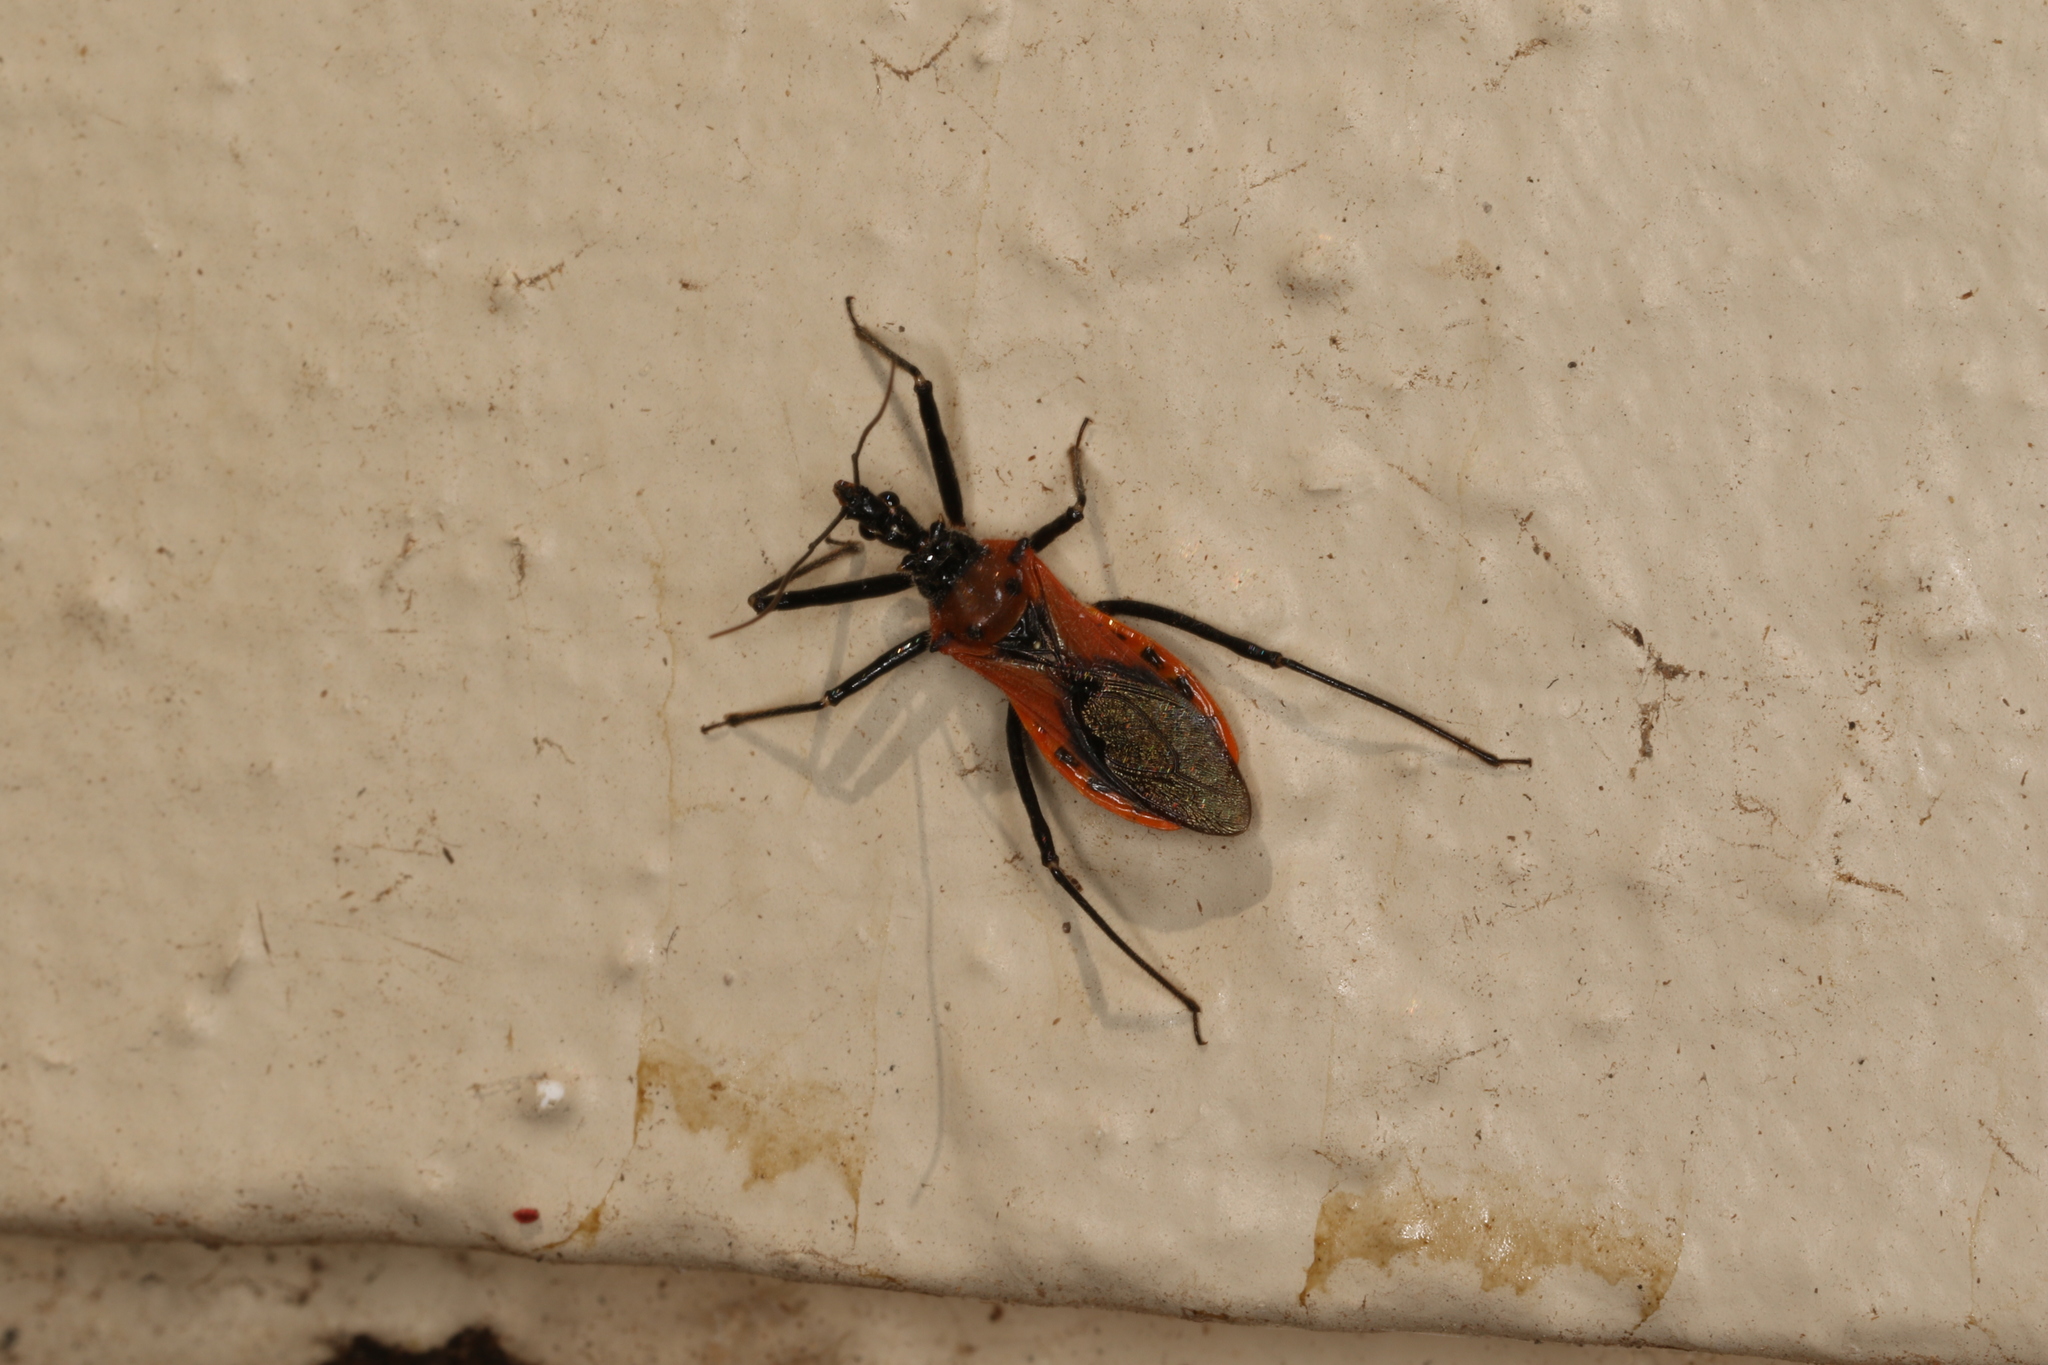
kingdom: Animalia
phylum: Arthropoda
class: Insecta
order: Hemiptera
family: Reduviidae
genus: Gminatus
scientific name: Gminatus australis
